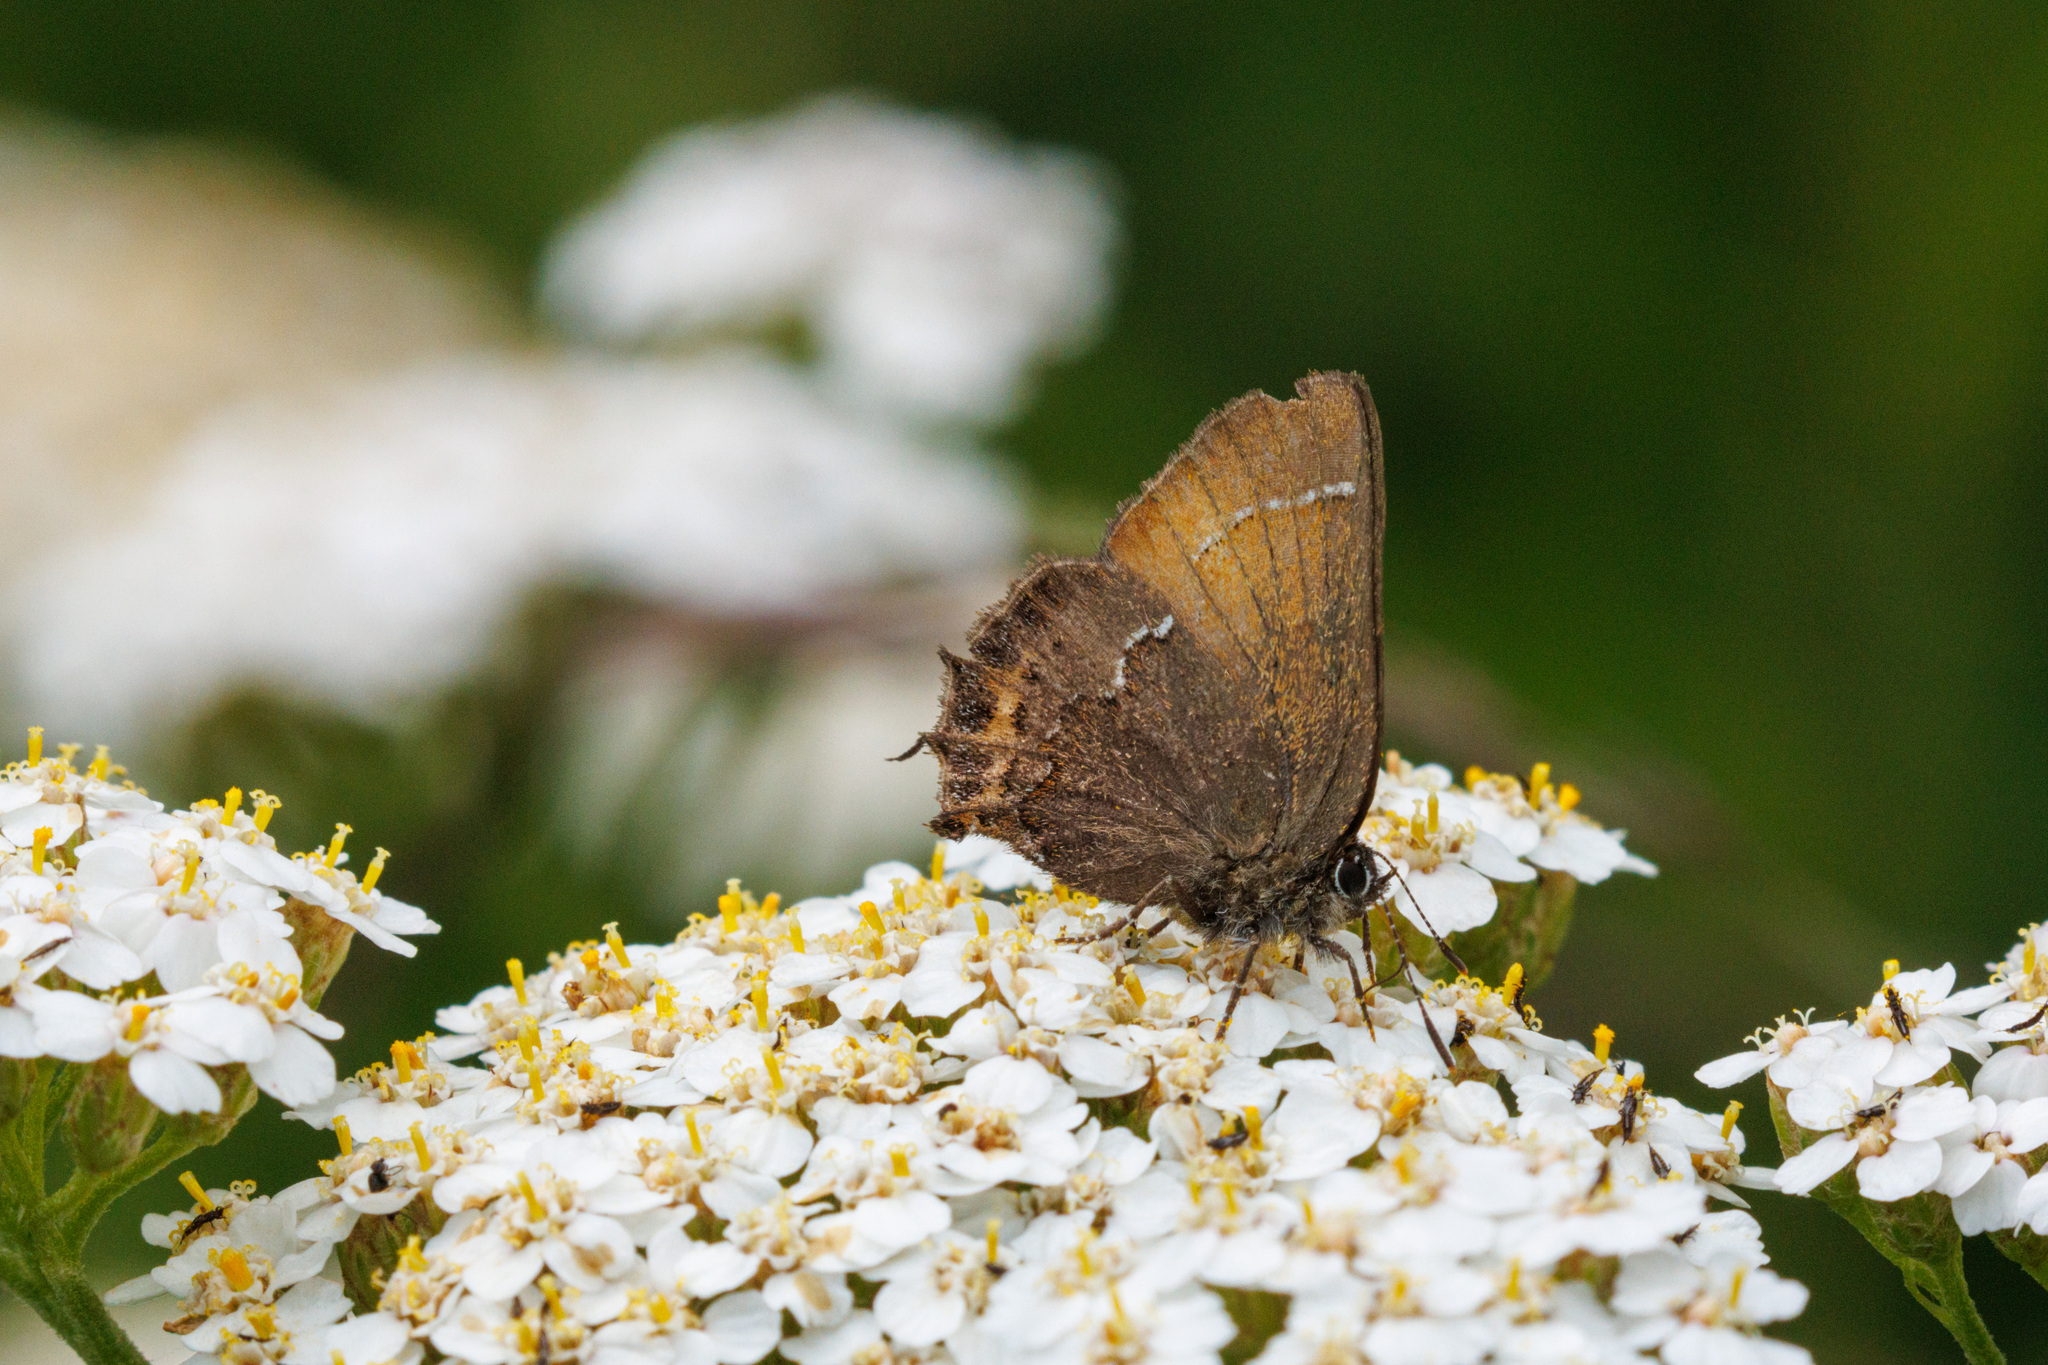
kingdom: Animalia
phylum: Arthropoda
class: Insecta
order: Lepidoptera
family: Lycaenidae
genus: Mitoura
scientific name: Mitoura gryneus
